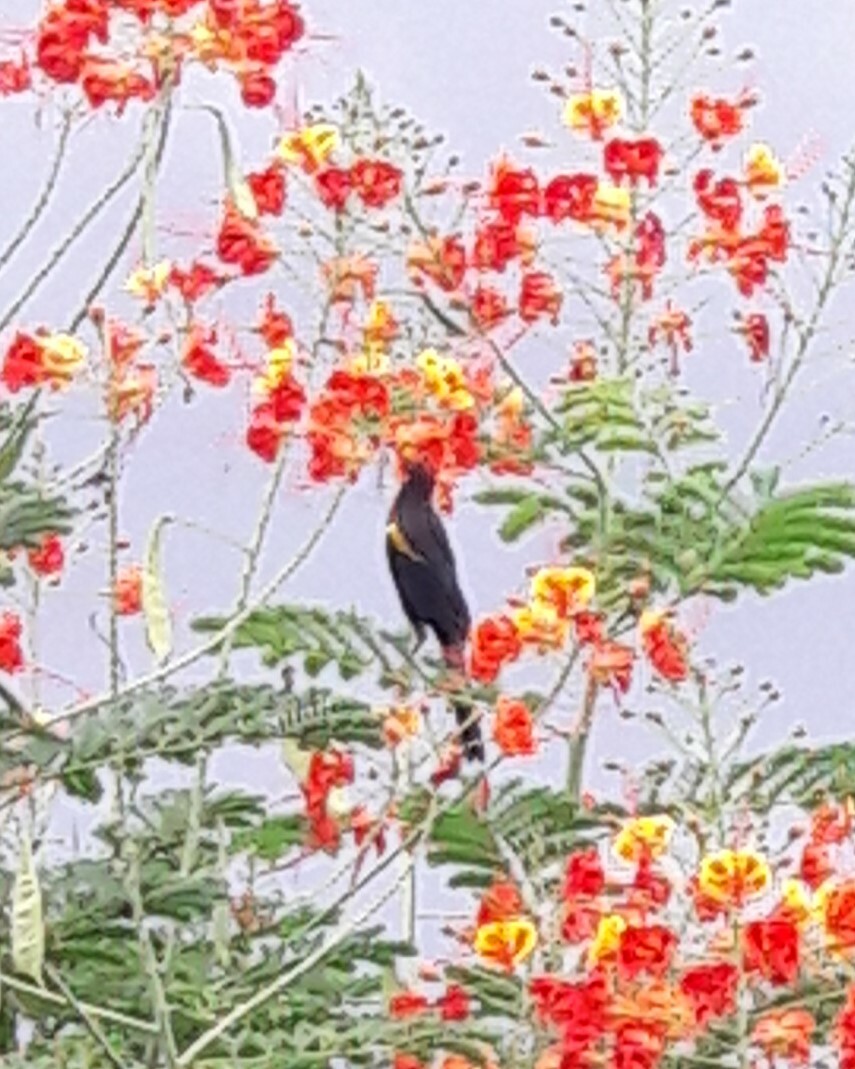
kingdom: Animalia
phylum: Chordata
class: Aves
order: Passeriformes
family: Icteridae
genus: Icterus
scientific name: Icterus cayanensis
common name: Epaulet oriole
